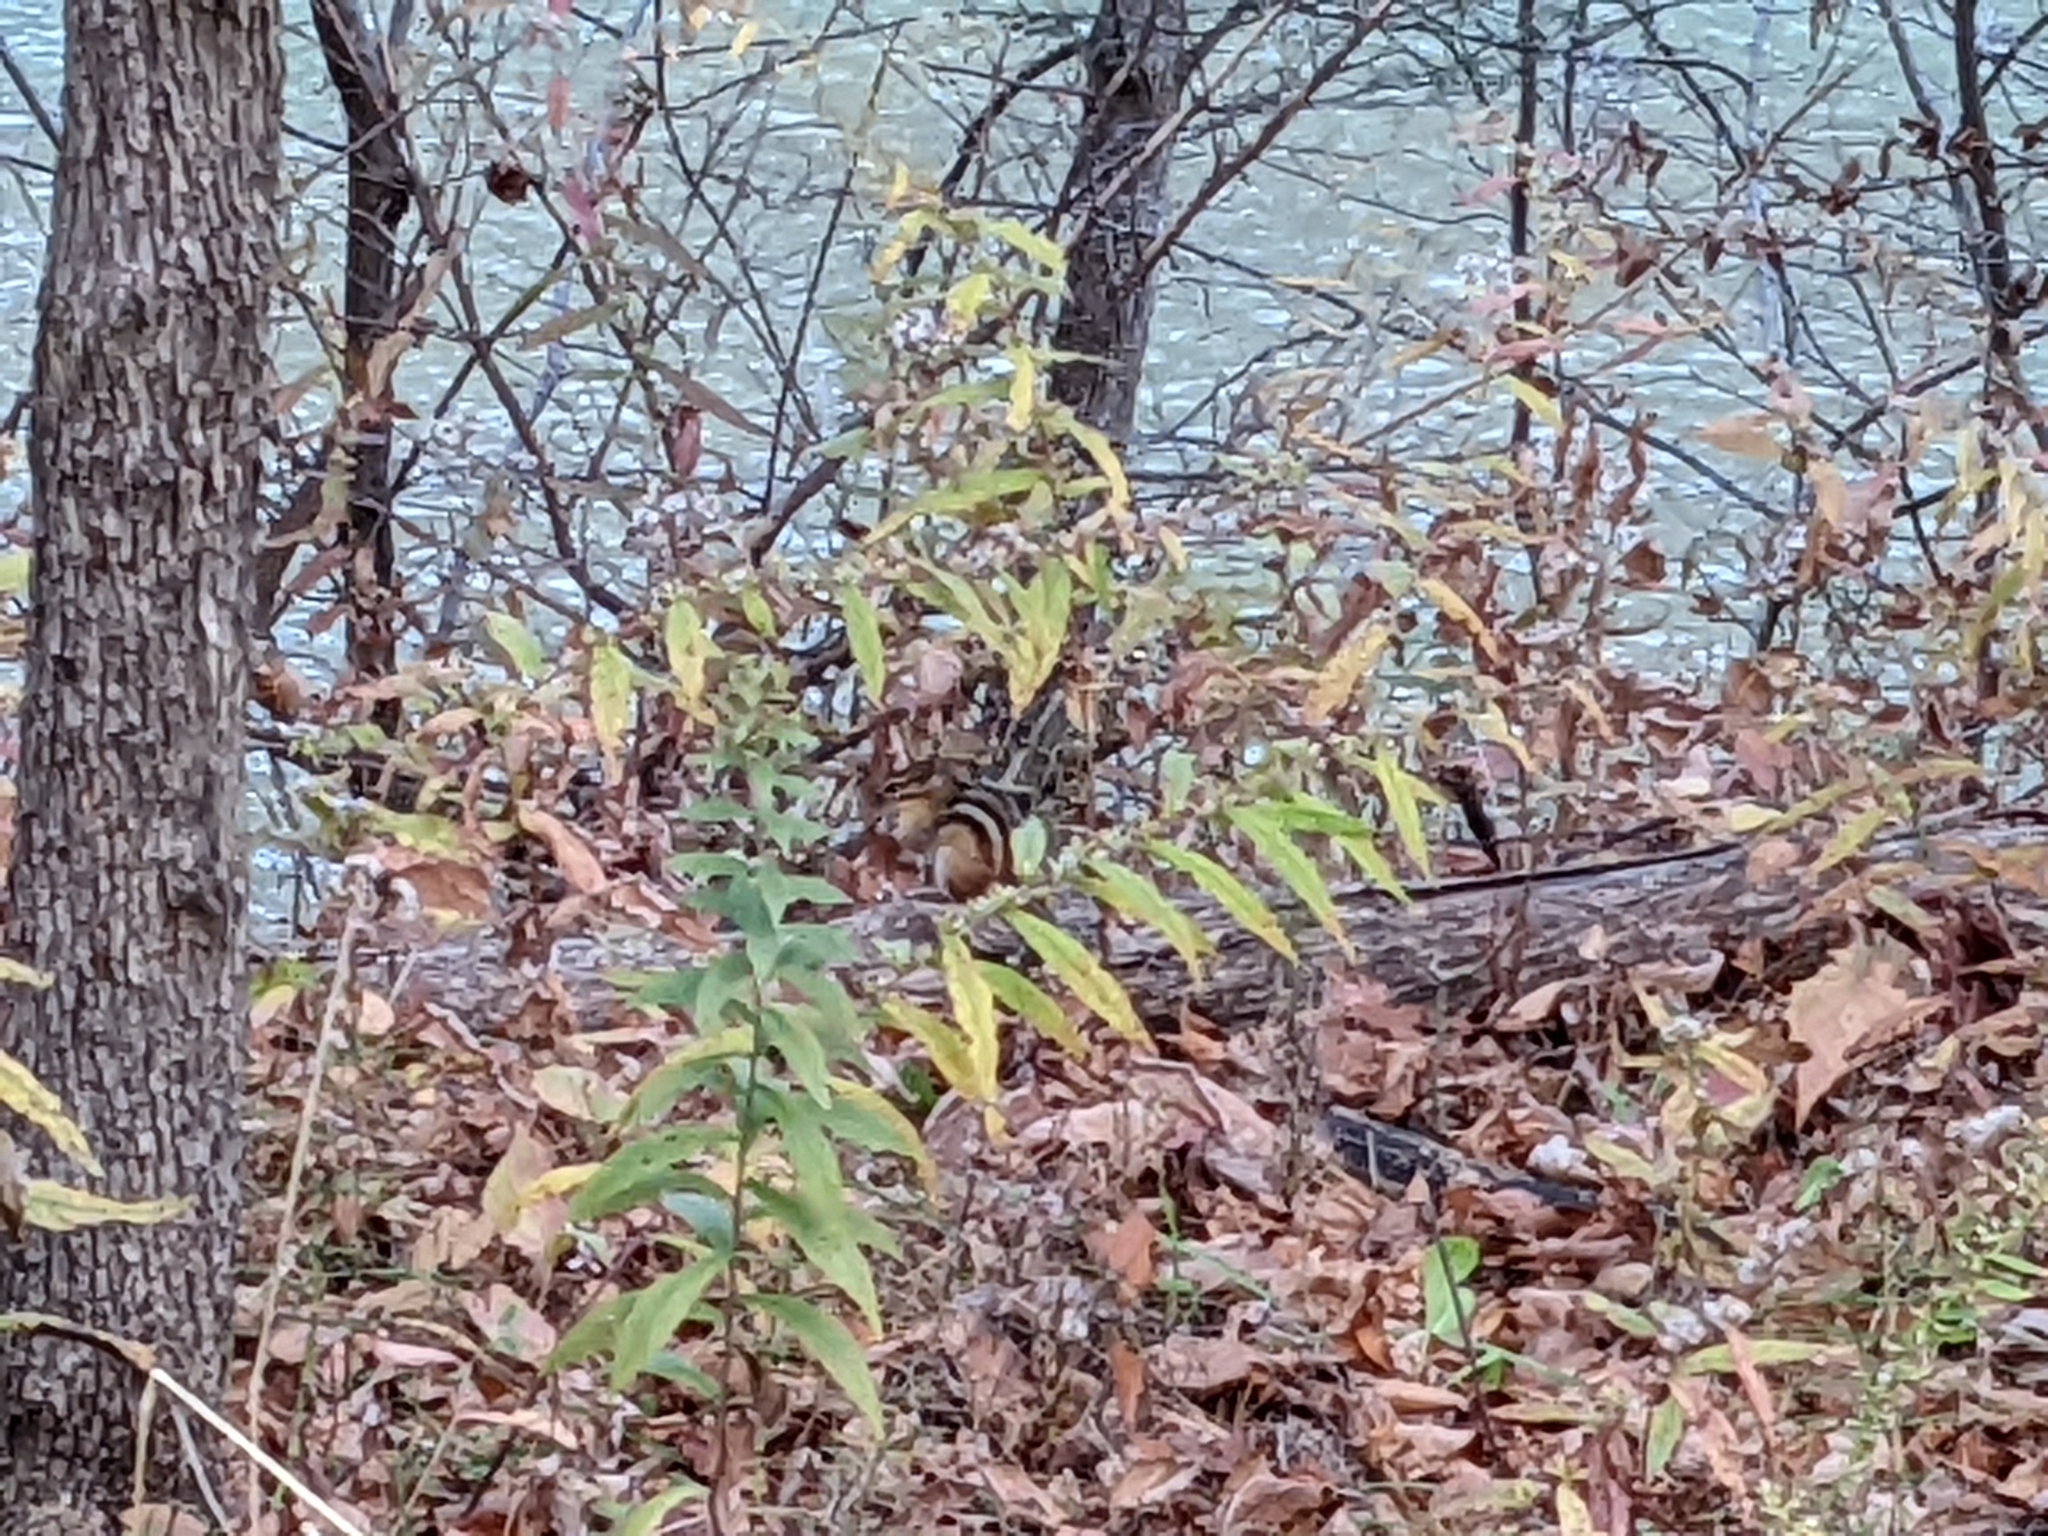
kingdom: Animalia
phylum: Chordata
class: Mammalia
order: Rodentia
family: Sciuridae
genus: Tamias
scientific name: Tamias striatus
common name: Eastern chipmunk
